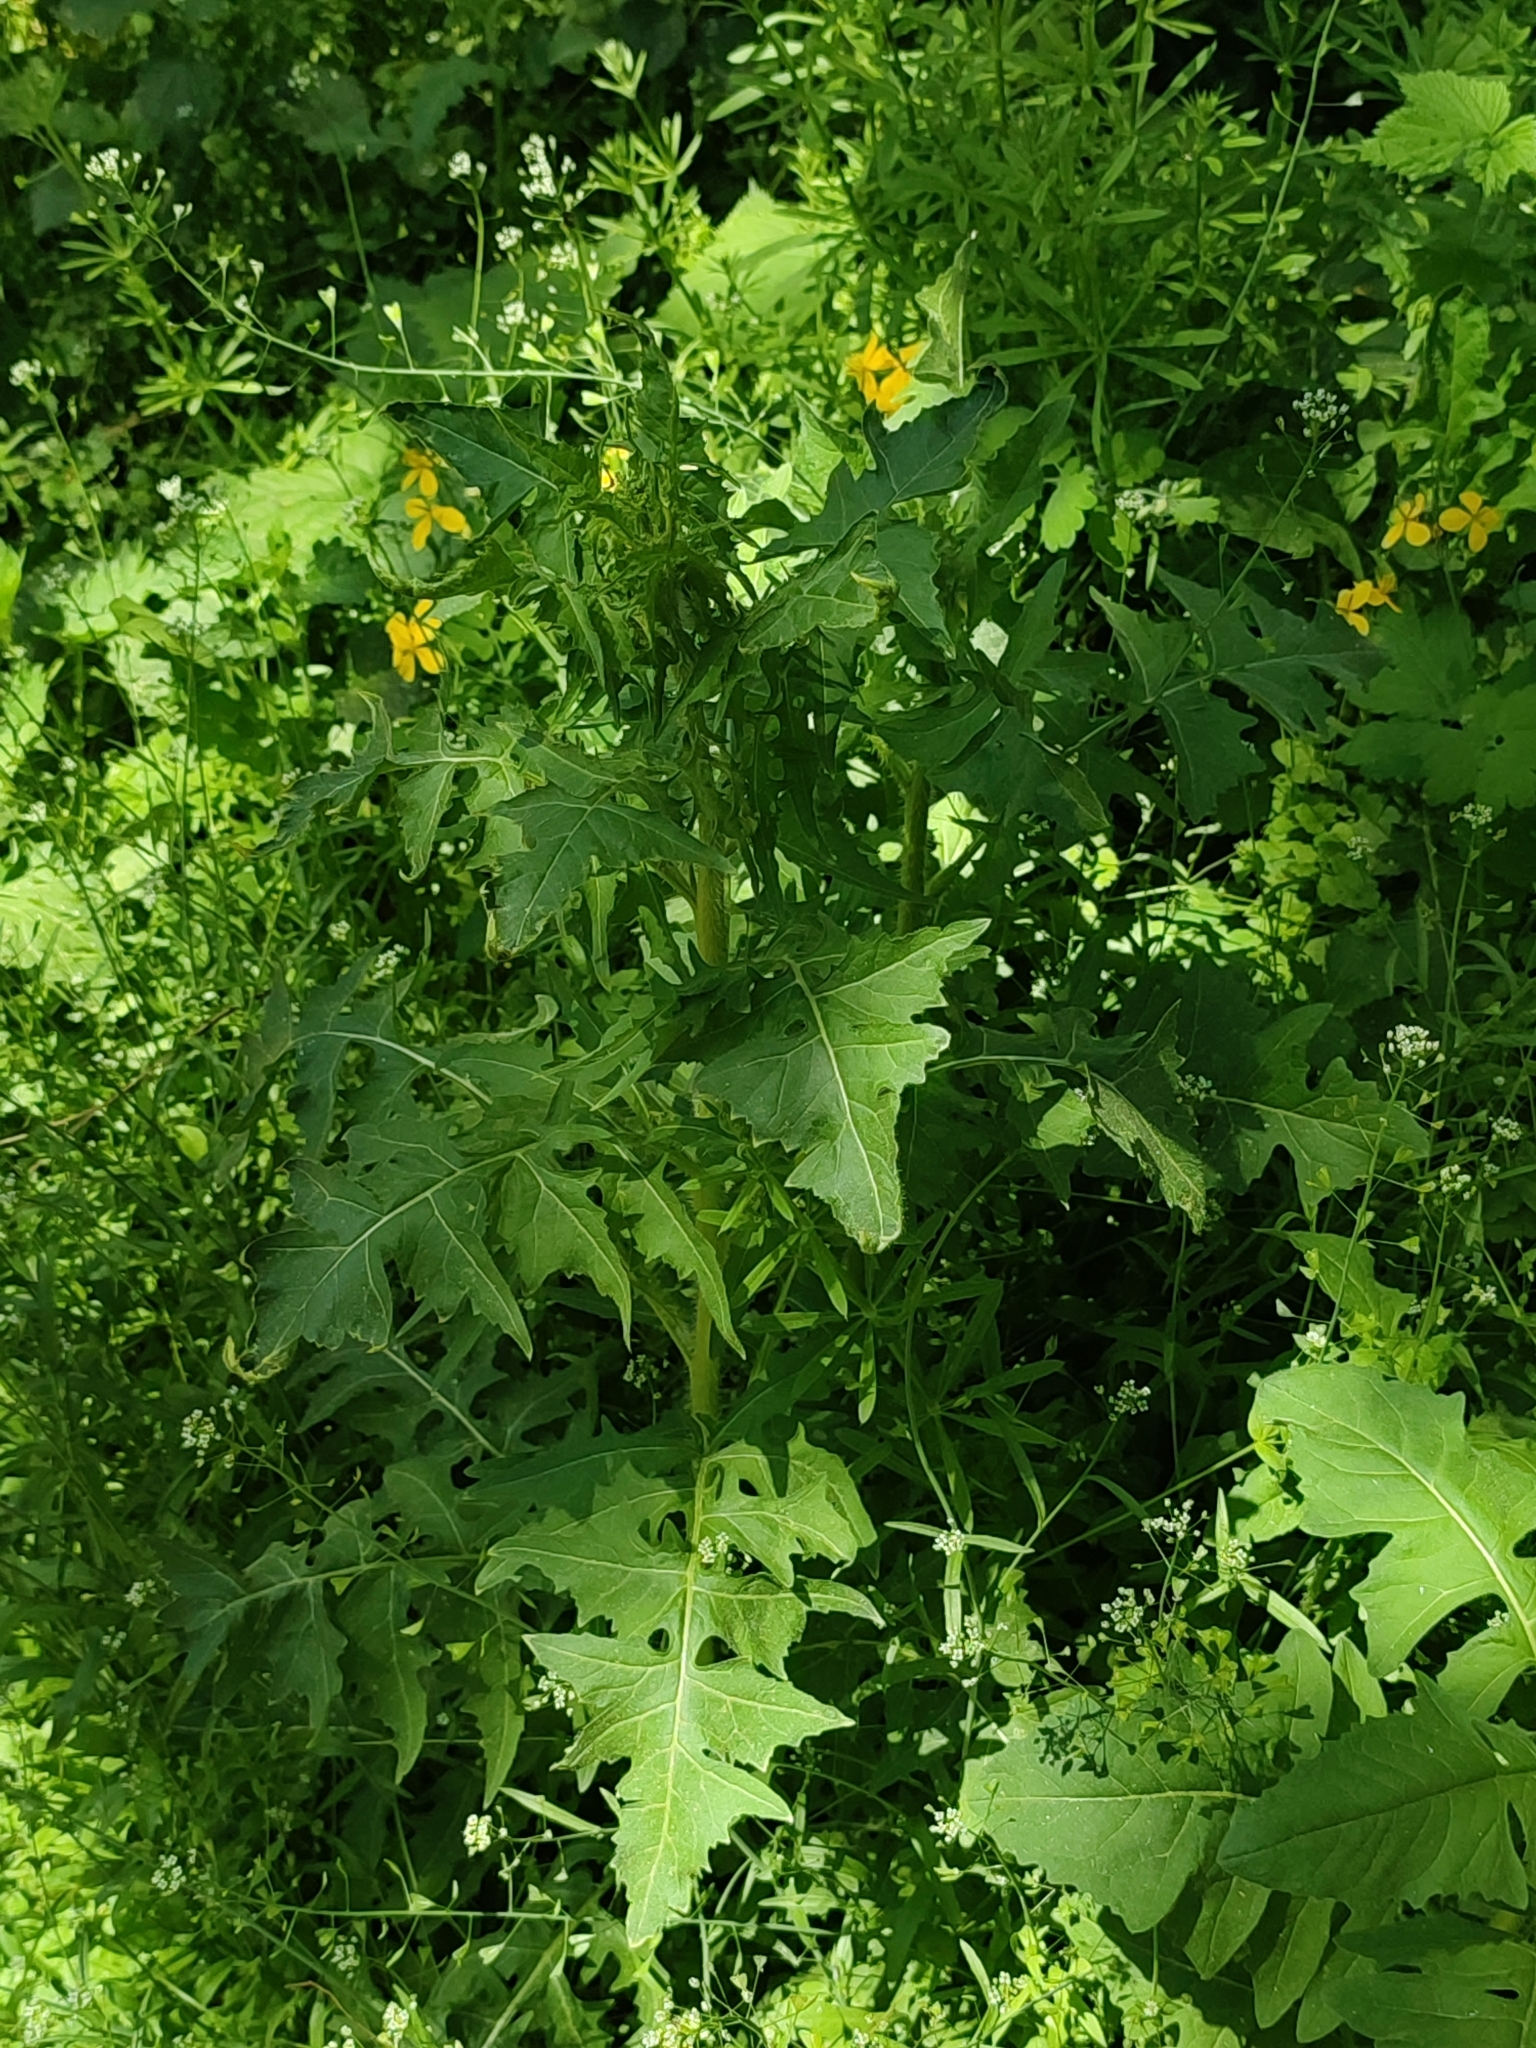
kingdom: Plantae
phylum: Tracheophyta
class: Magnoliopsida
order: Brassicales
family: Brassicaceae
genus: Sisymbrium
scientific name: Sisymbrium loeselii
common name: False london-rocket
